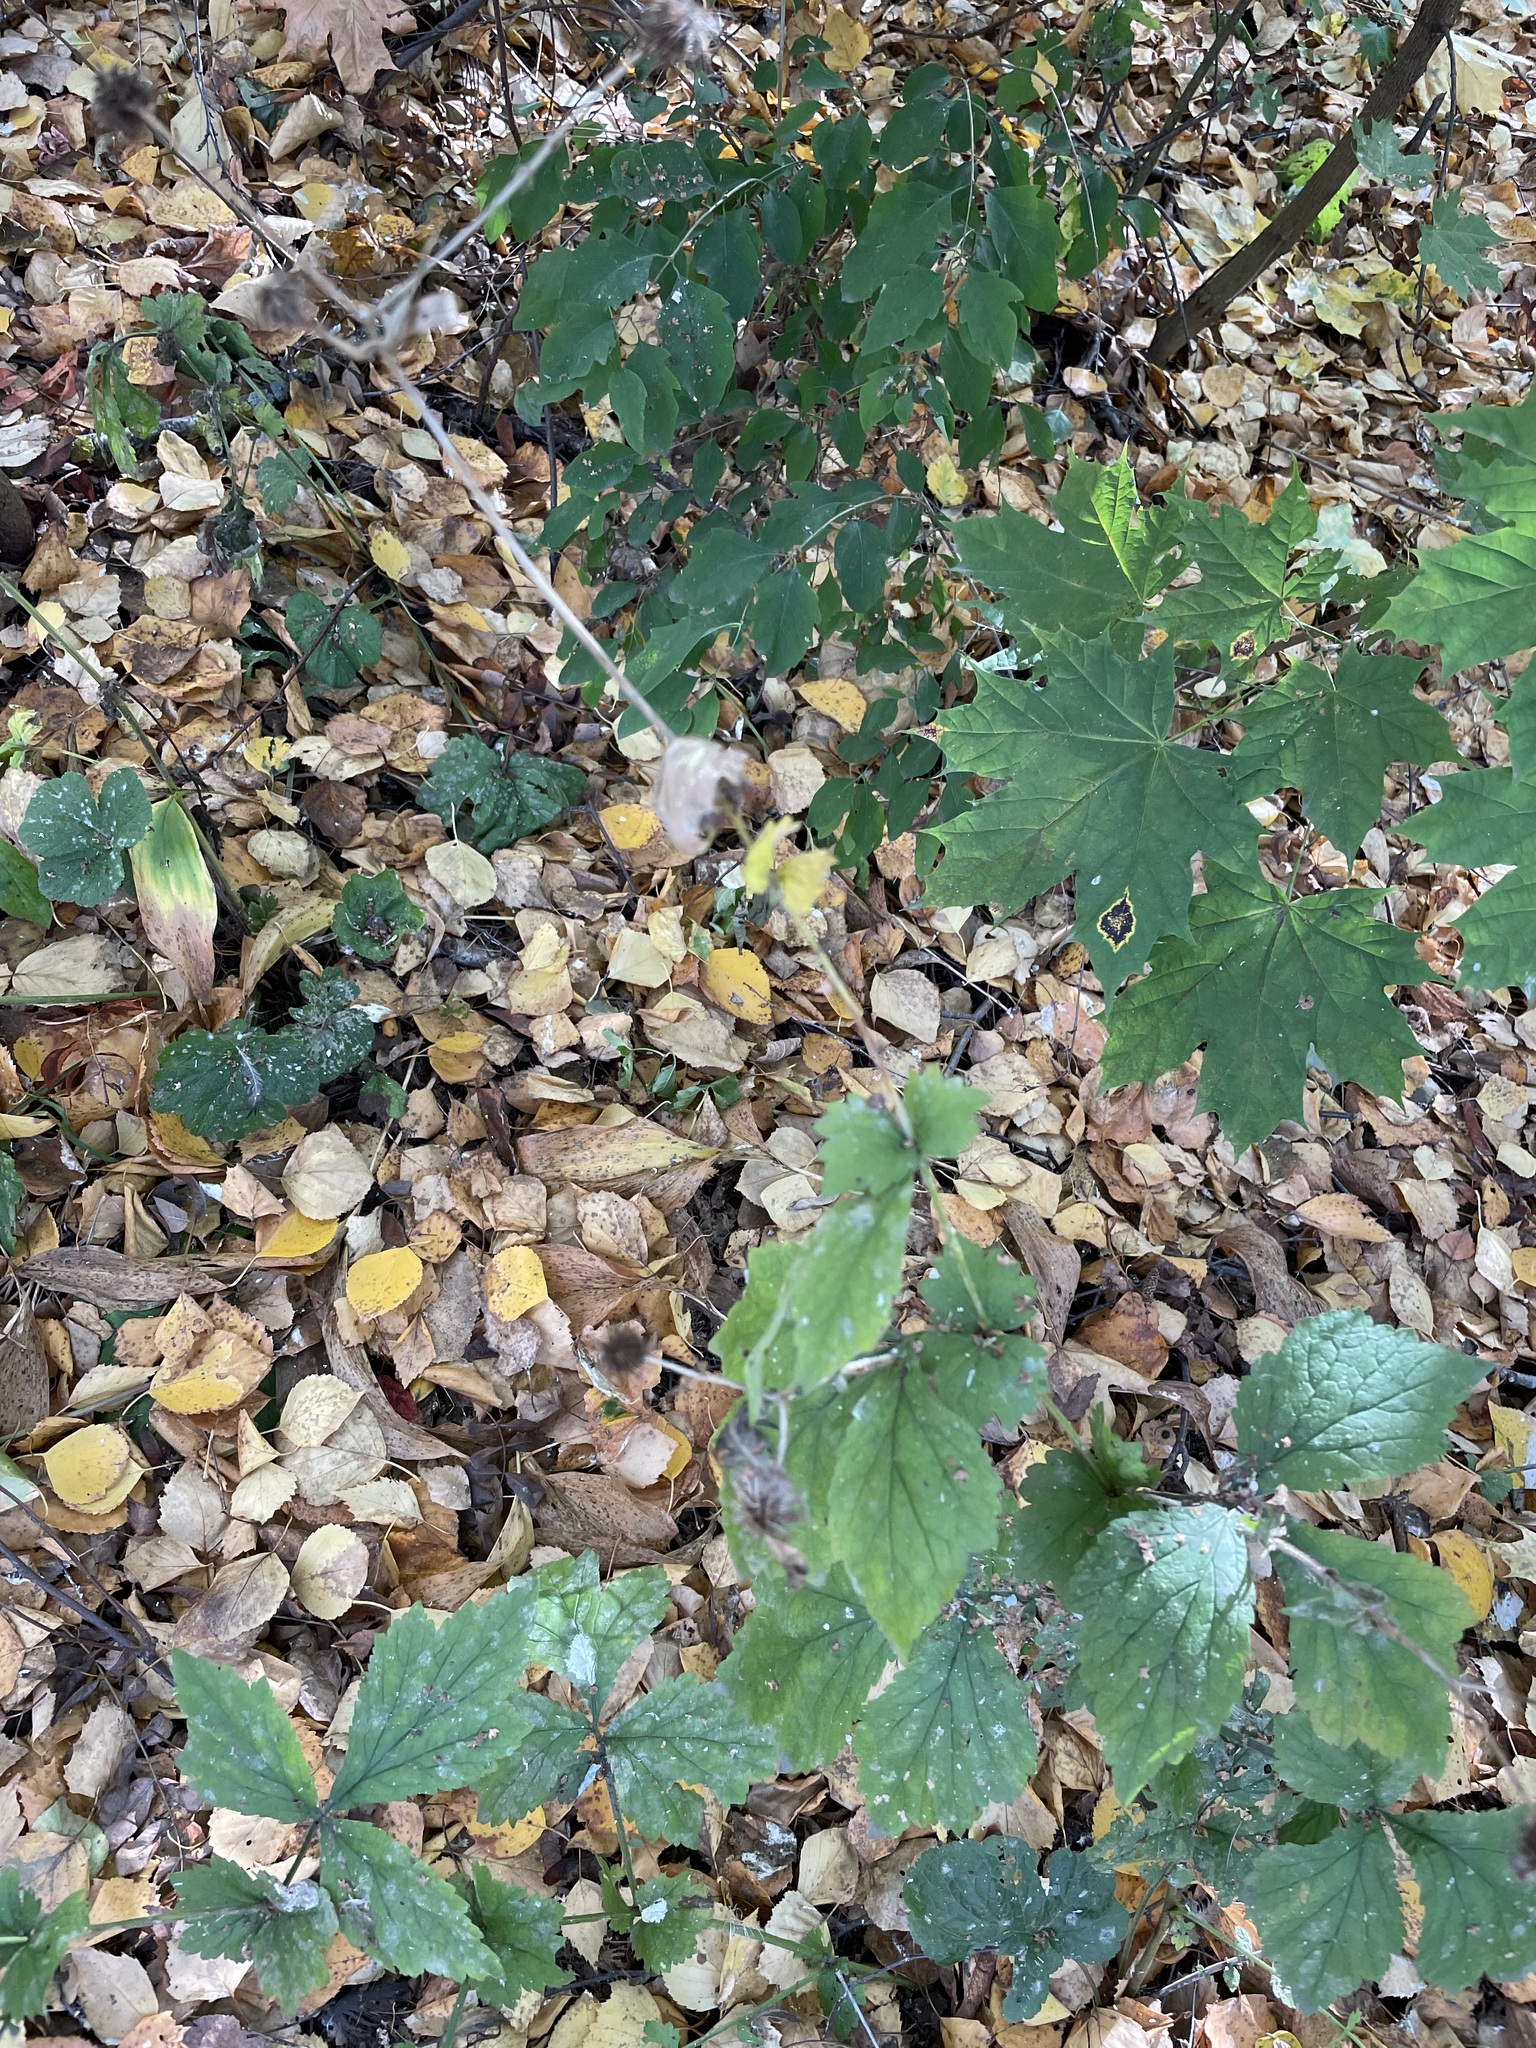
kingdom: Plantae
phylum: Tracheophyta
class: Magnoliopsida
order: Rosales
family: Rosaceae
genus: Geum
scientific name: Geum urbanum
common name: Wood avens
